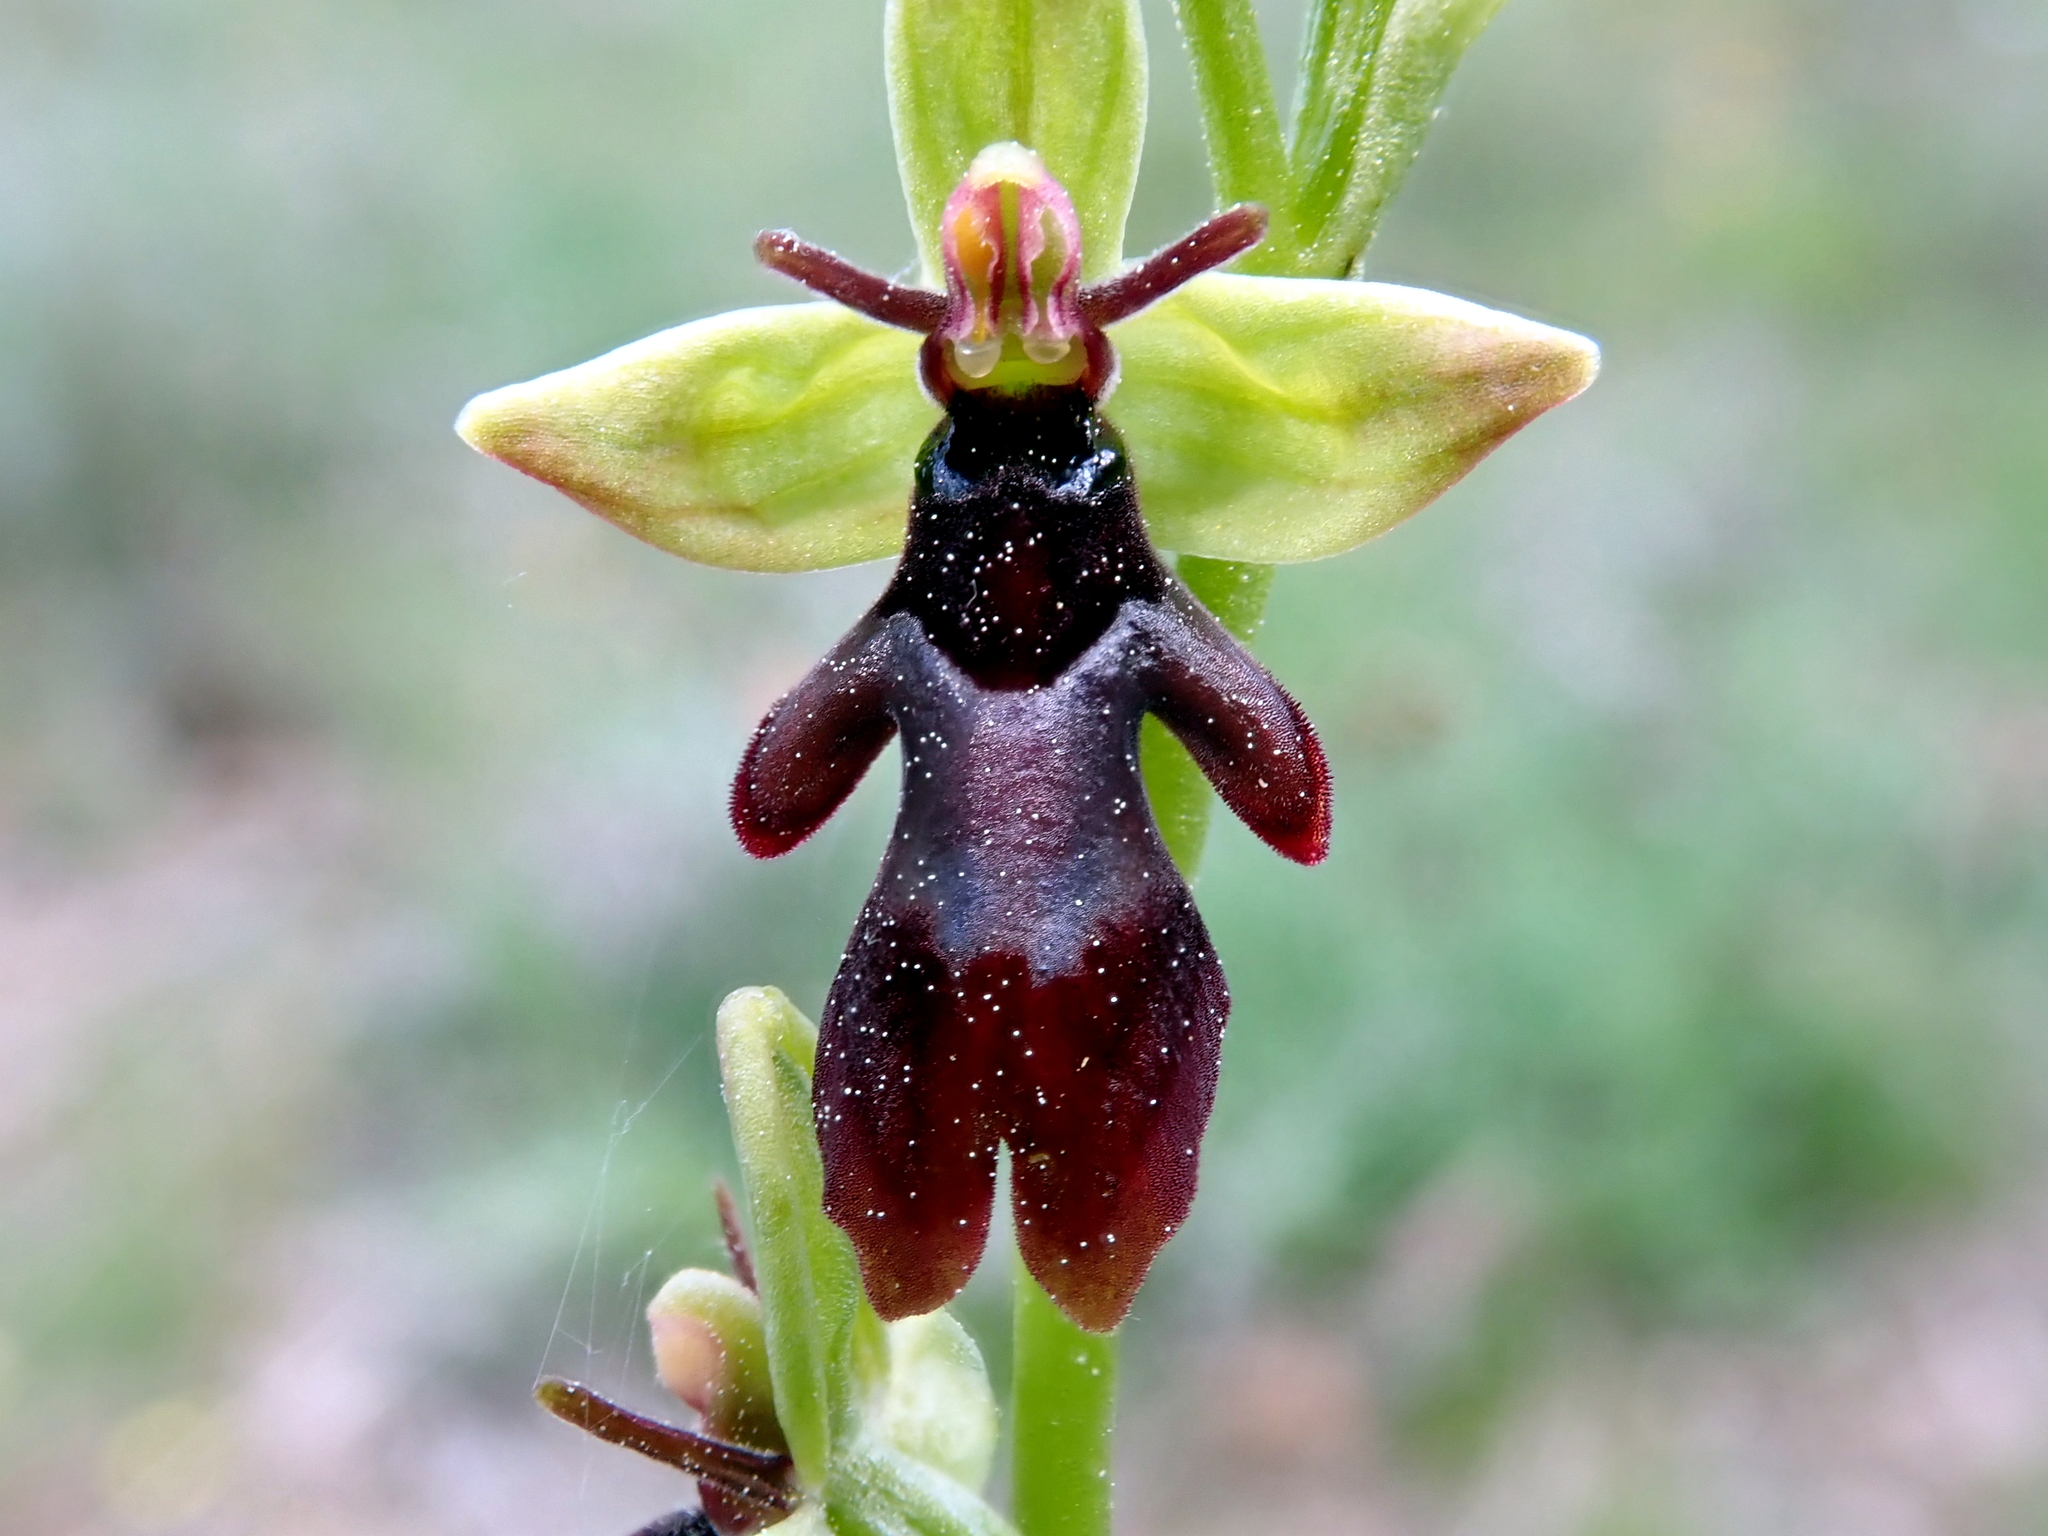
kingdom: Plantae
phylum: Tracheophyta
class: Liliopsida
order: Asparagales
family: Orchidaceae
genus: Ophrys
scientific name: Ophrys insectifera
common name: Fly orchid
